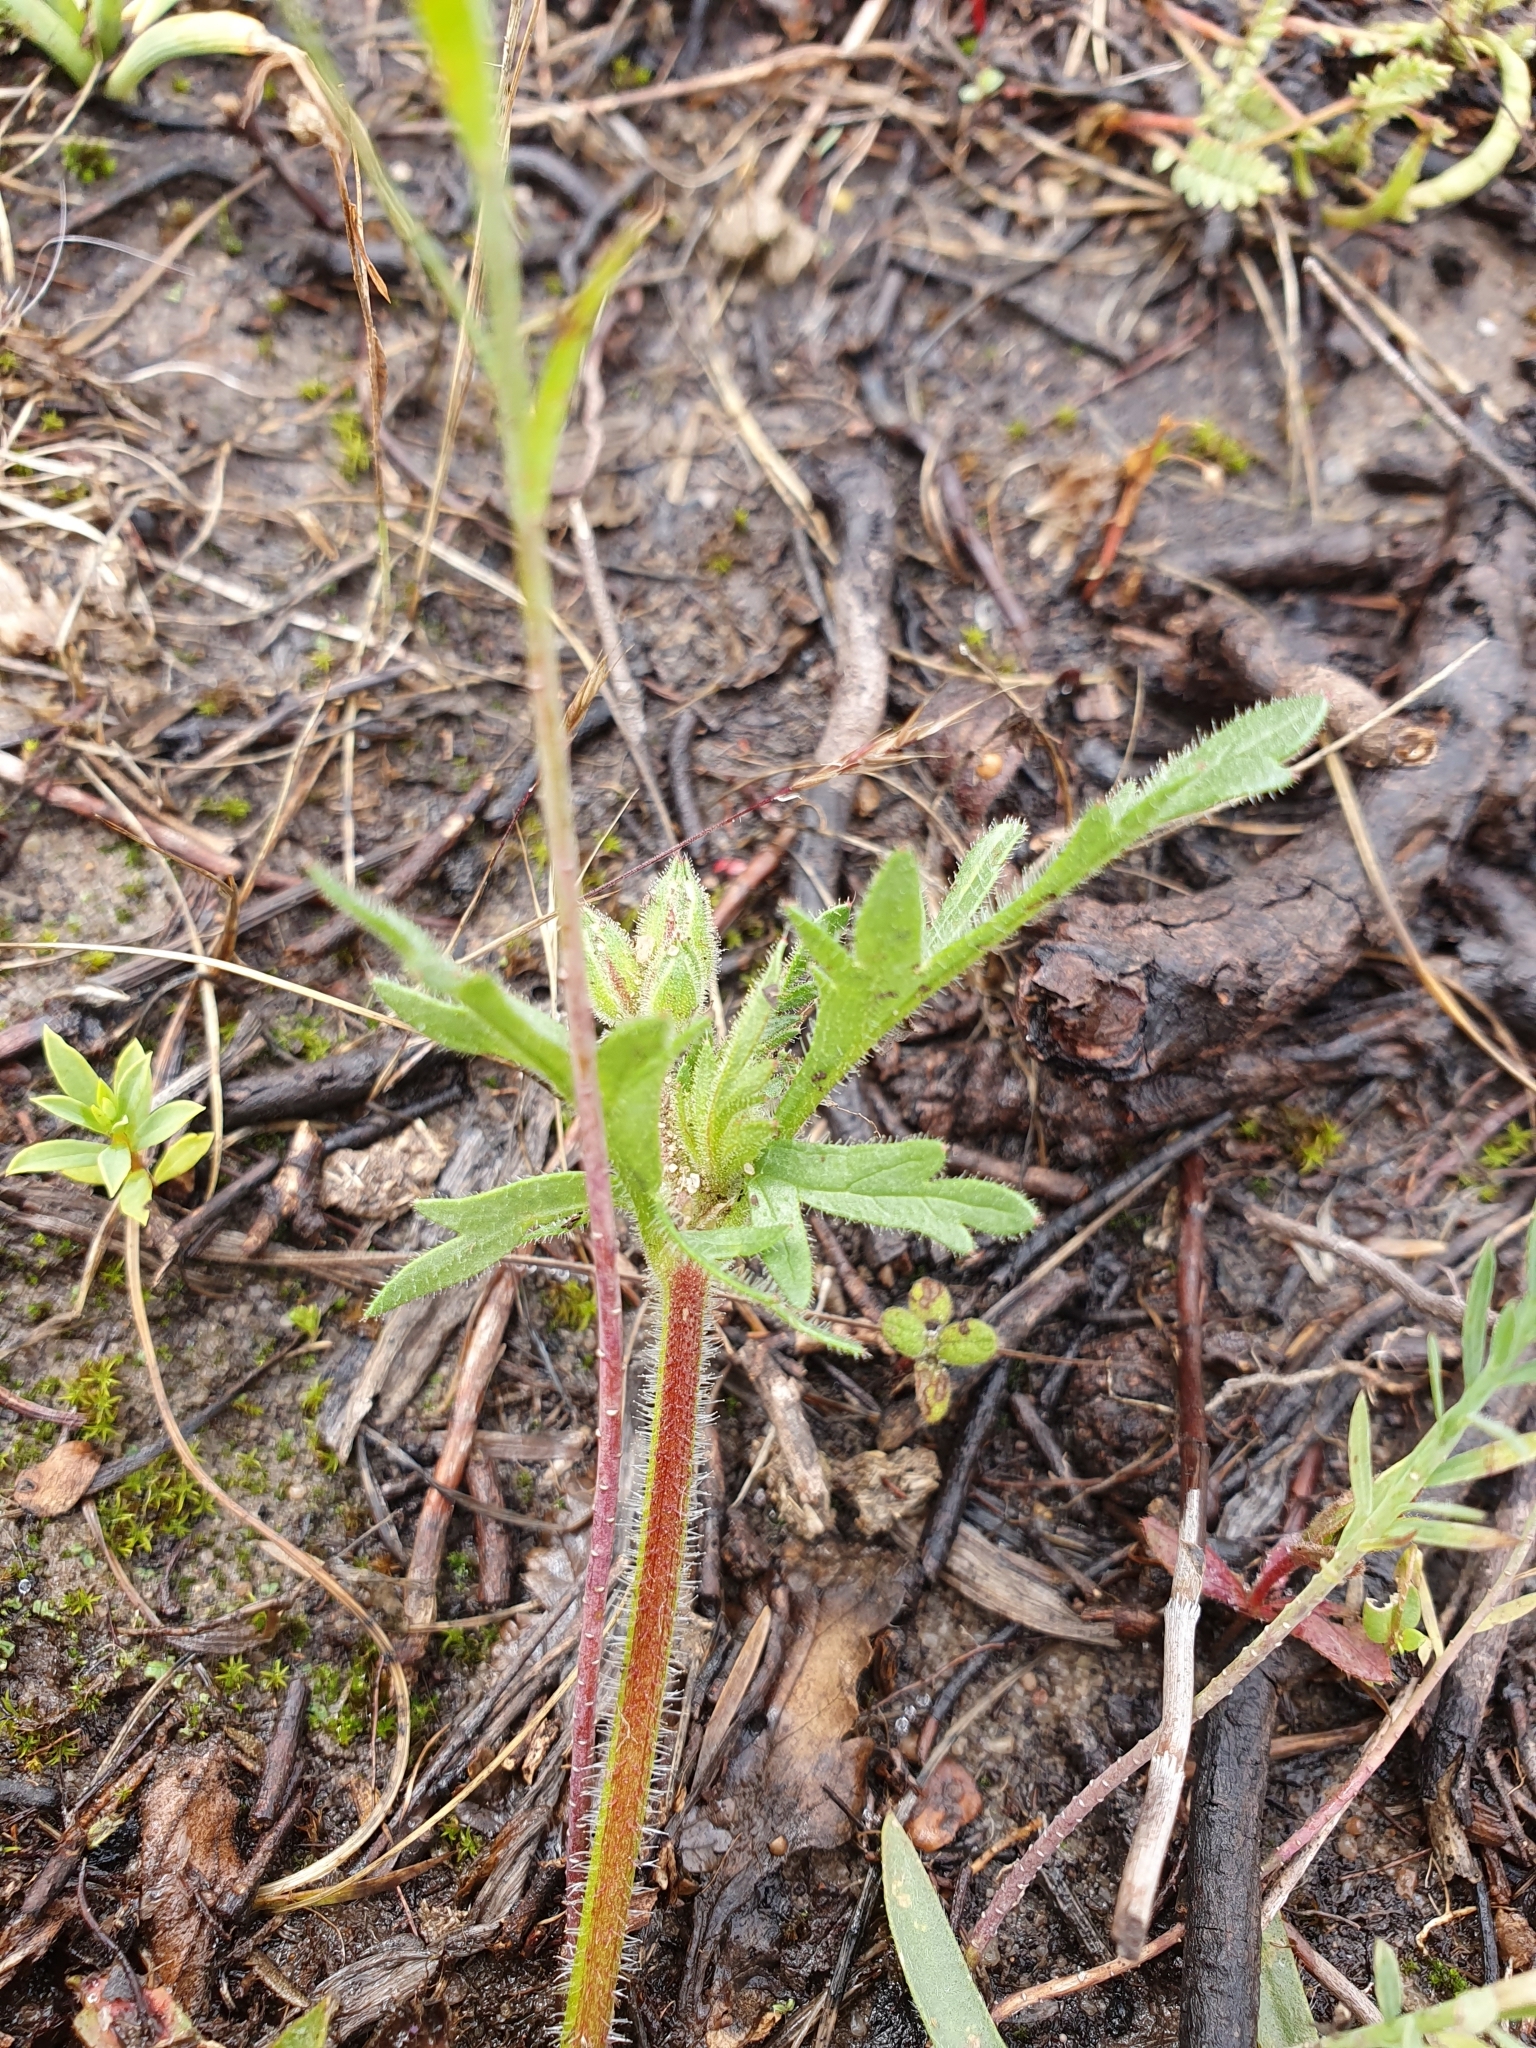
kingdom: Plantae
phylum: Tracheophyta
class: Magnoliopsida
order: Geraniales
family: Geraniaceae
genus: Erodium
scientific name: Erodium botrys
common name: Mediterranean stork's-bill
